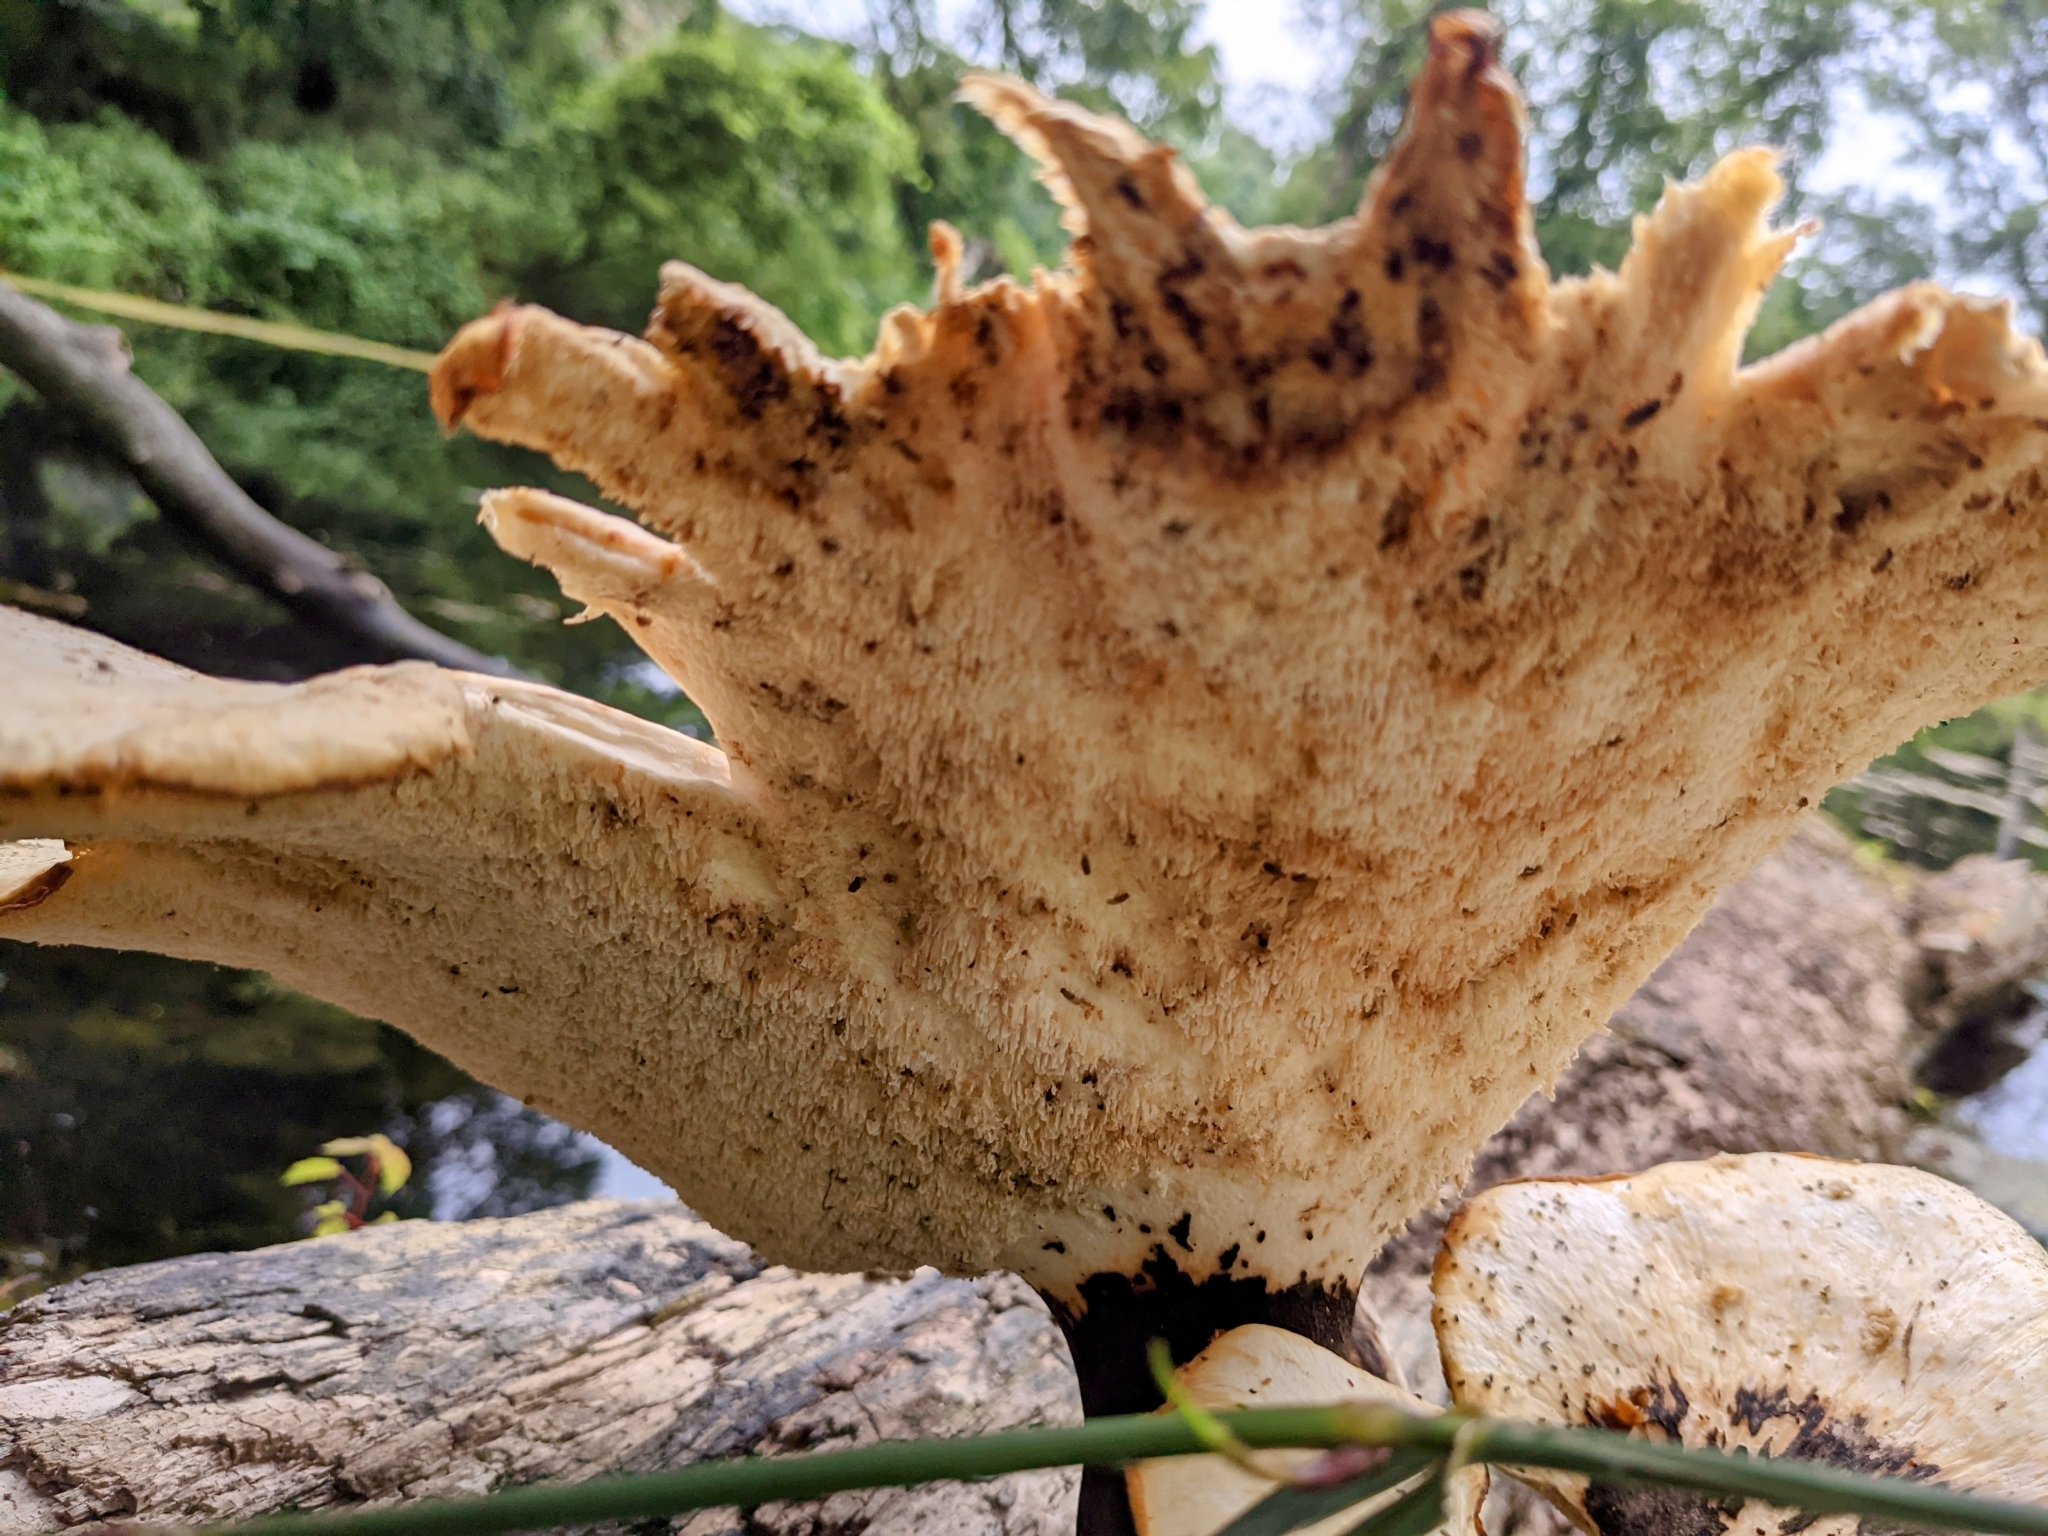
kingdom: Fungi
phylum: Basidiomycota
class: Agaricomycetes
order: Polyporales
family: Polyporaceae
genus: Cerioporus
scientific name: Cerioporus squamosus
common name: Dryad's saddle
